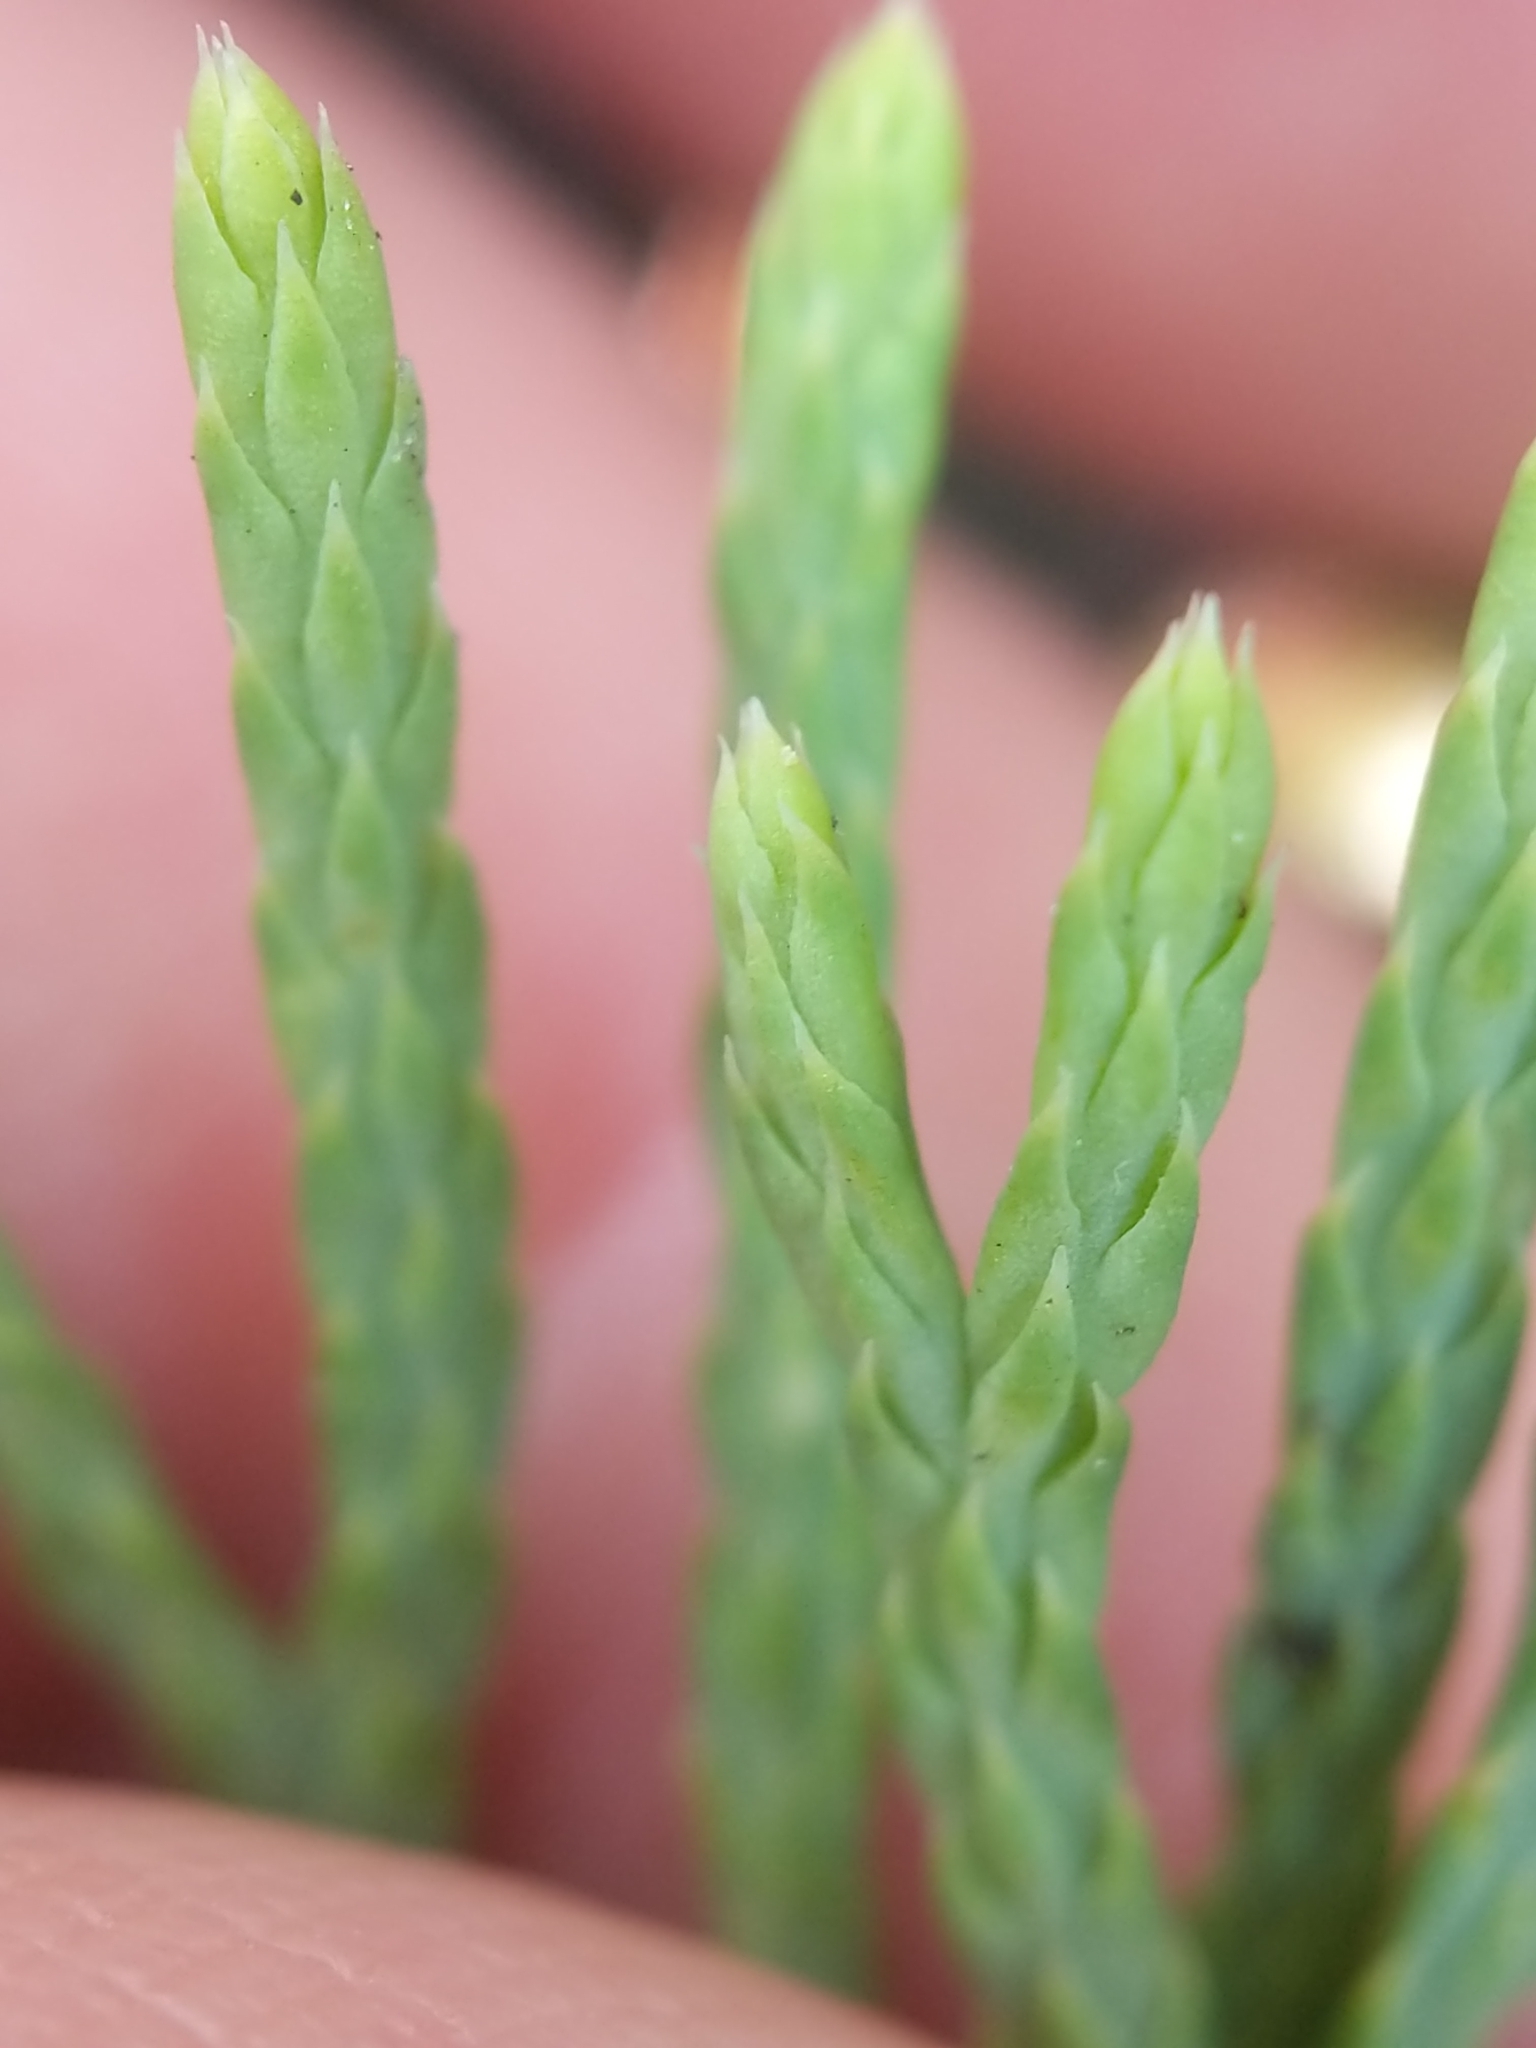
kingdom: Plantae
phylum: Tracheophyta
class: Lycopodiopsida
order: Lycopodiales
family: Lycopodiaceae
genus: Diphasiastrum
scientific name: Diphasiastrum tristachyum
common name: Blue ground-cedar
